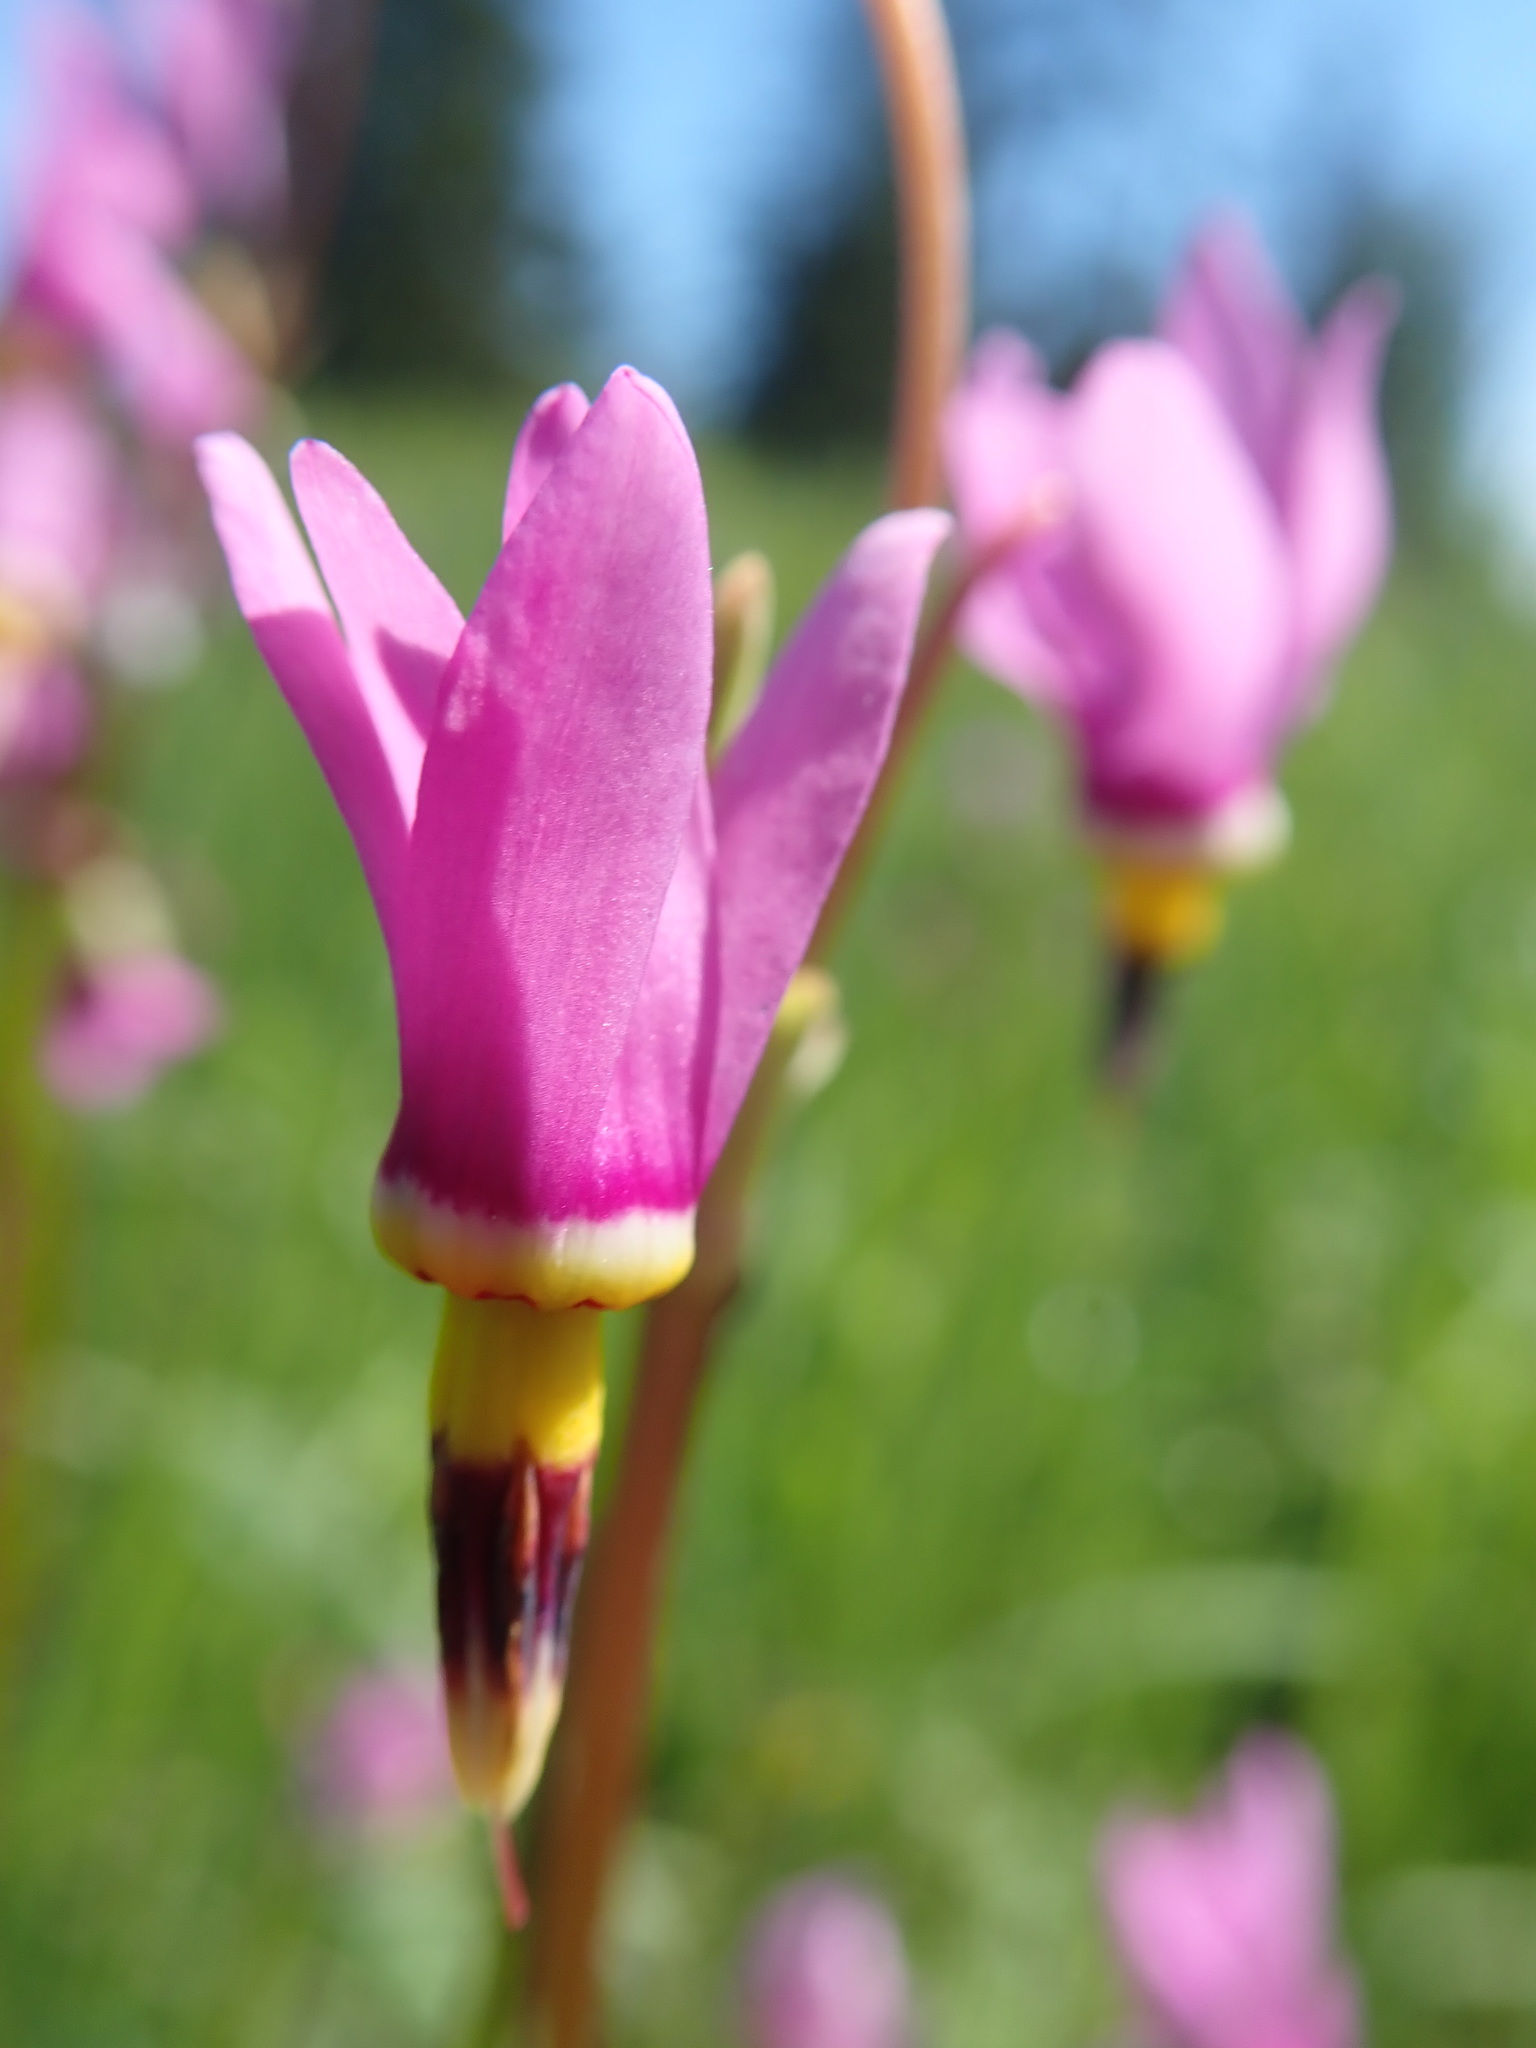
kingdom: Plantae
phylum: Tracheophyta
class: Magnoliopsida
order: Ericales
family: Primulaceae
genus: Dodecatheon
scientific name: Dodecatheon pulchellum
